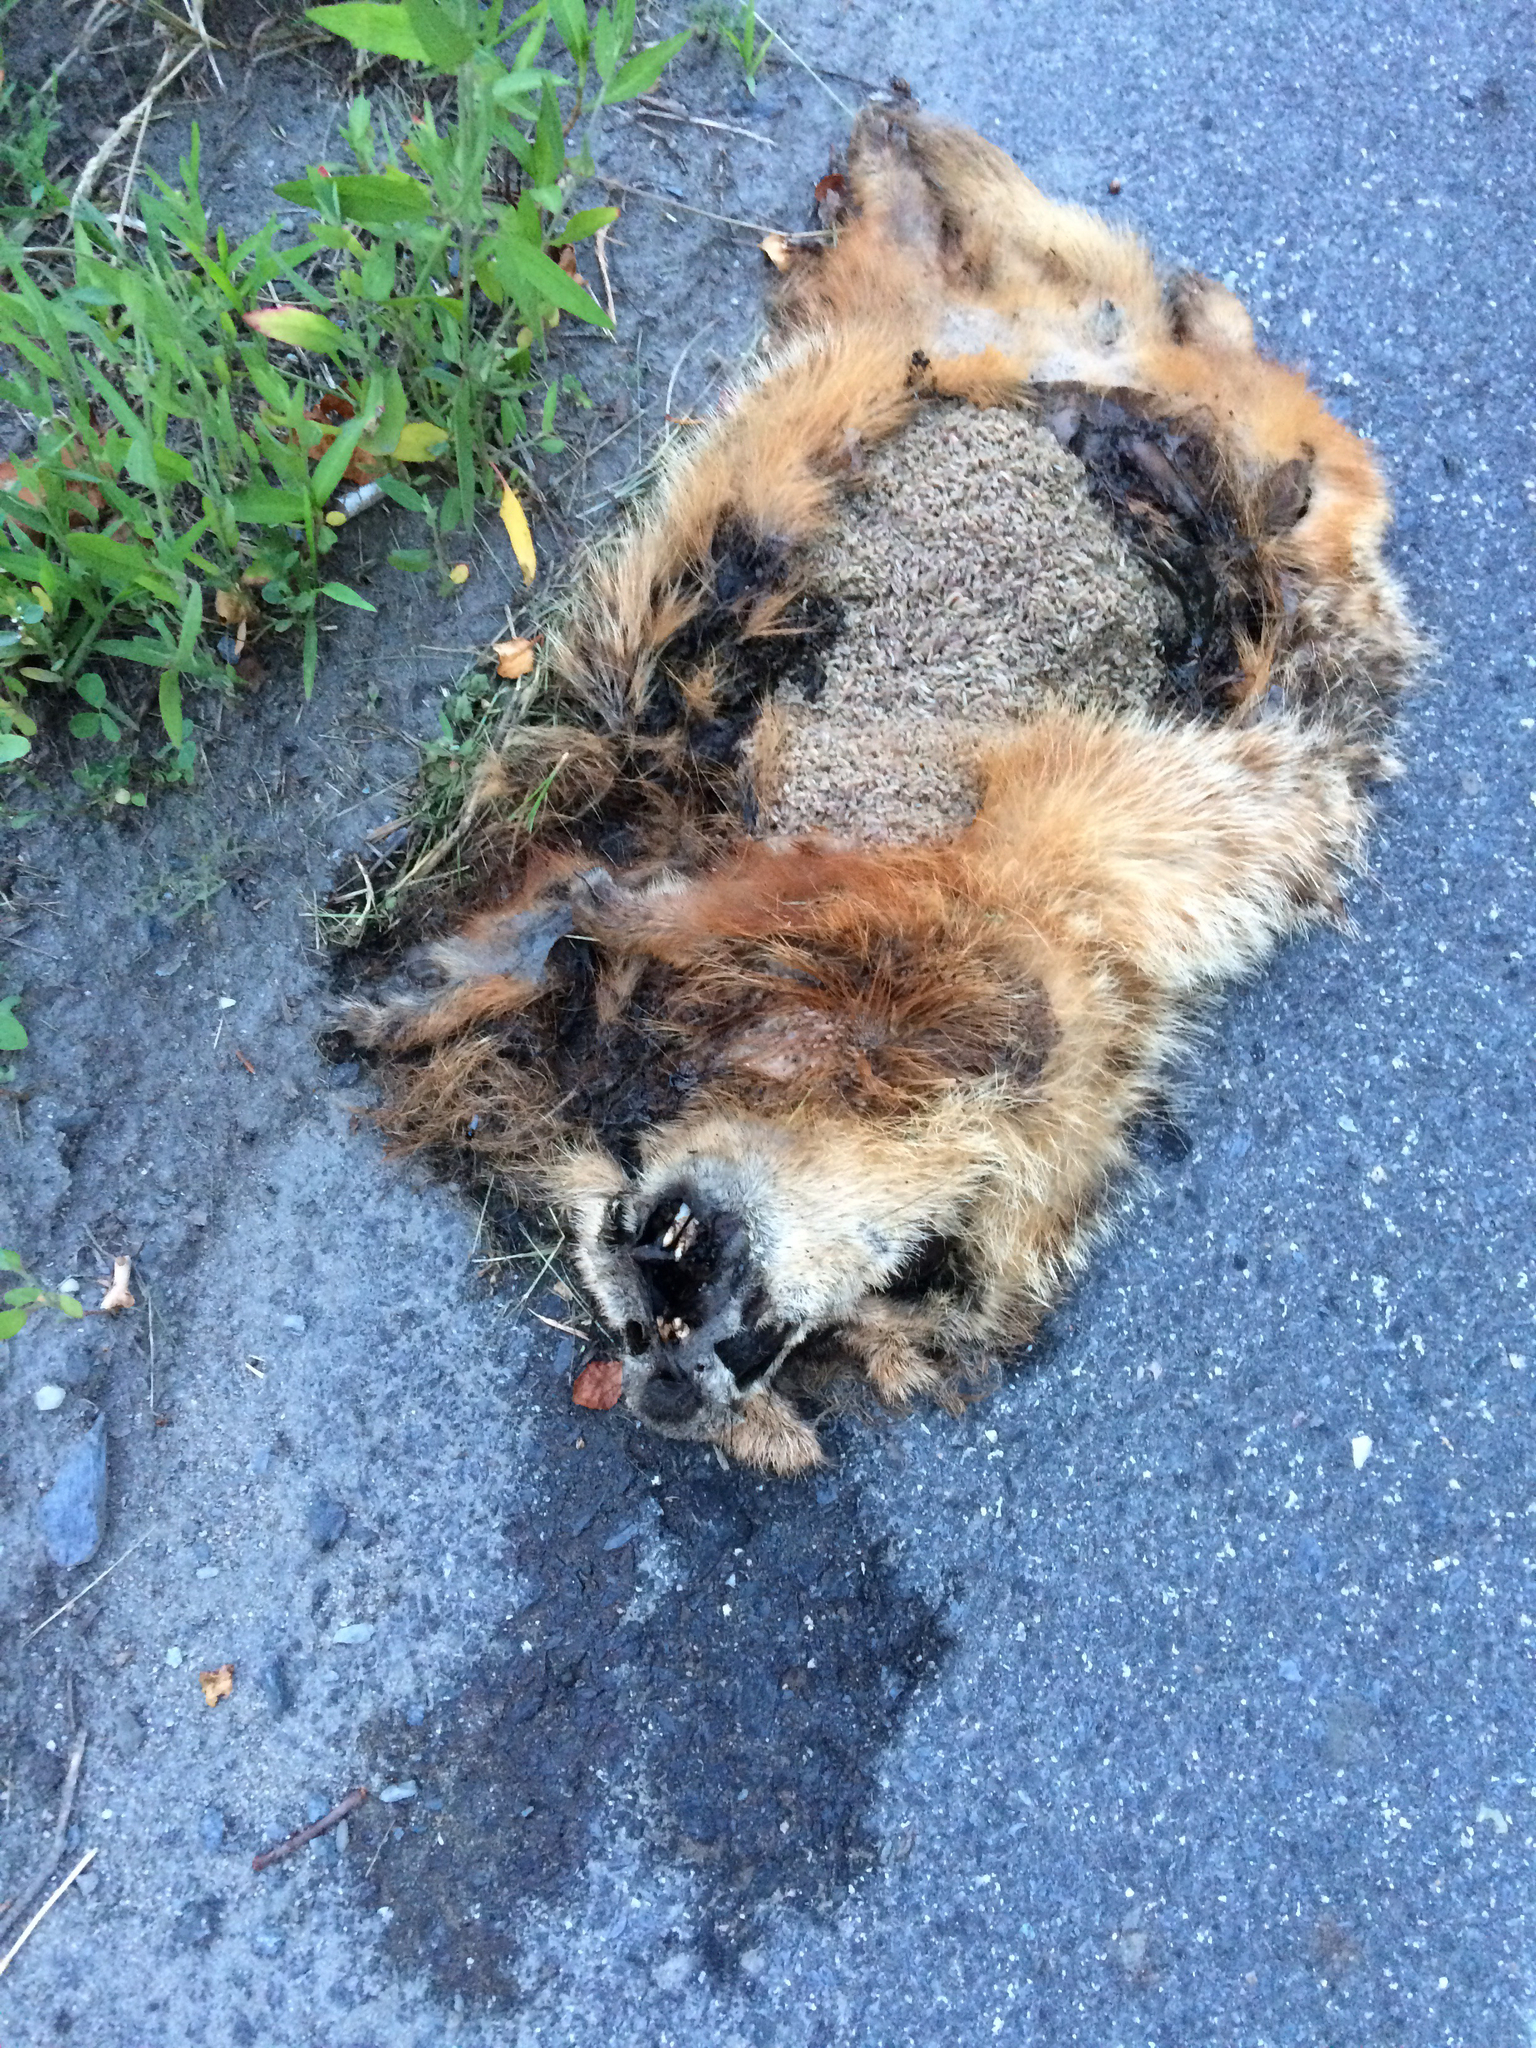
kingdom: Animalia
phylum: Chordata
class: Mammalia
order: Rodentia
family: Sciuridae
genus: Marmota
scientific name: Marmota monax
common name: Groundhog
